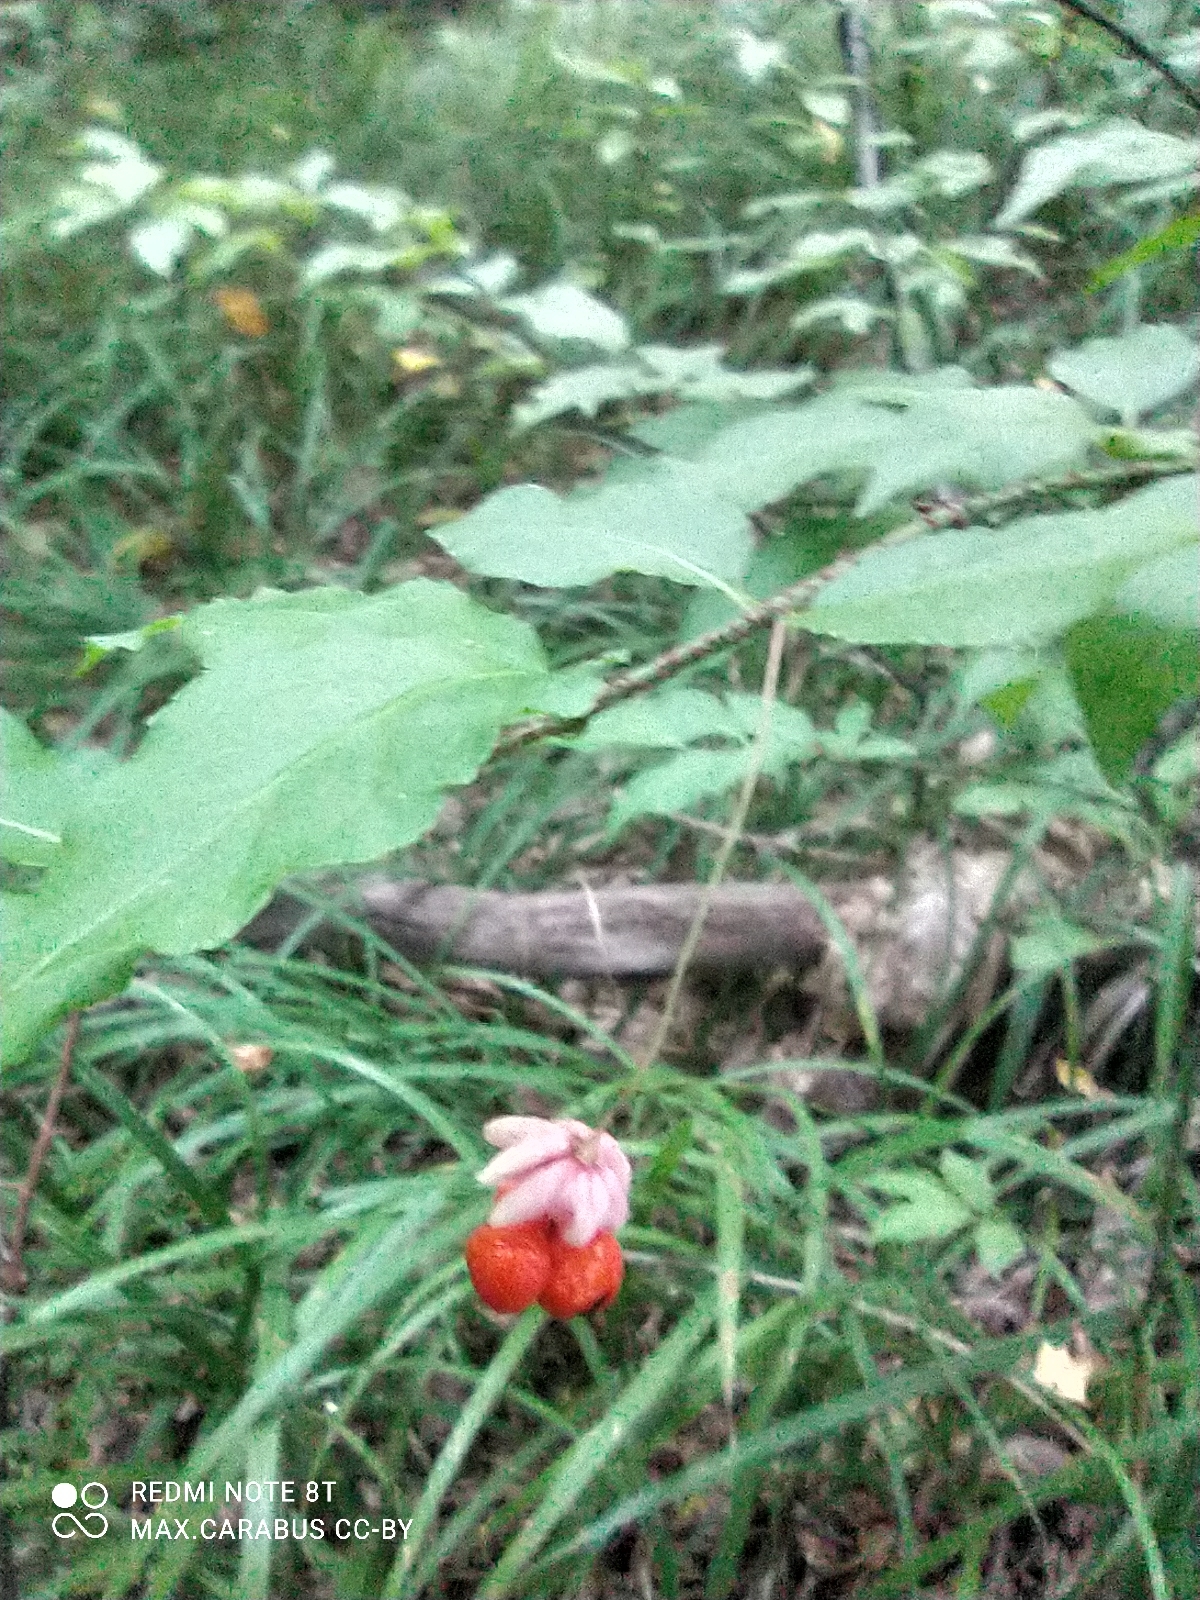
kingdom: Plantae
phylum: Tracheophyta
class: Magnoliopsida
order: Celastrales
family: Celastraceae
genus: Euonymus
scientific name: Euonymus verrucosus
